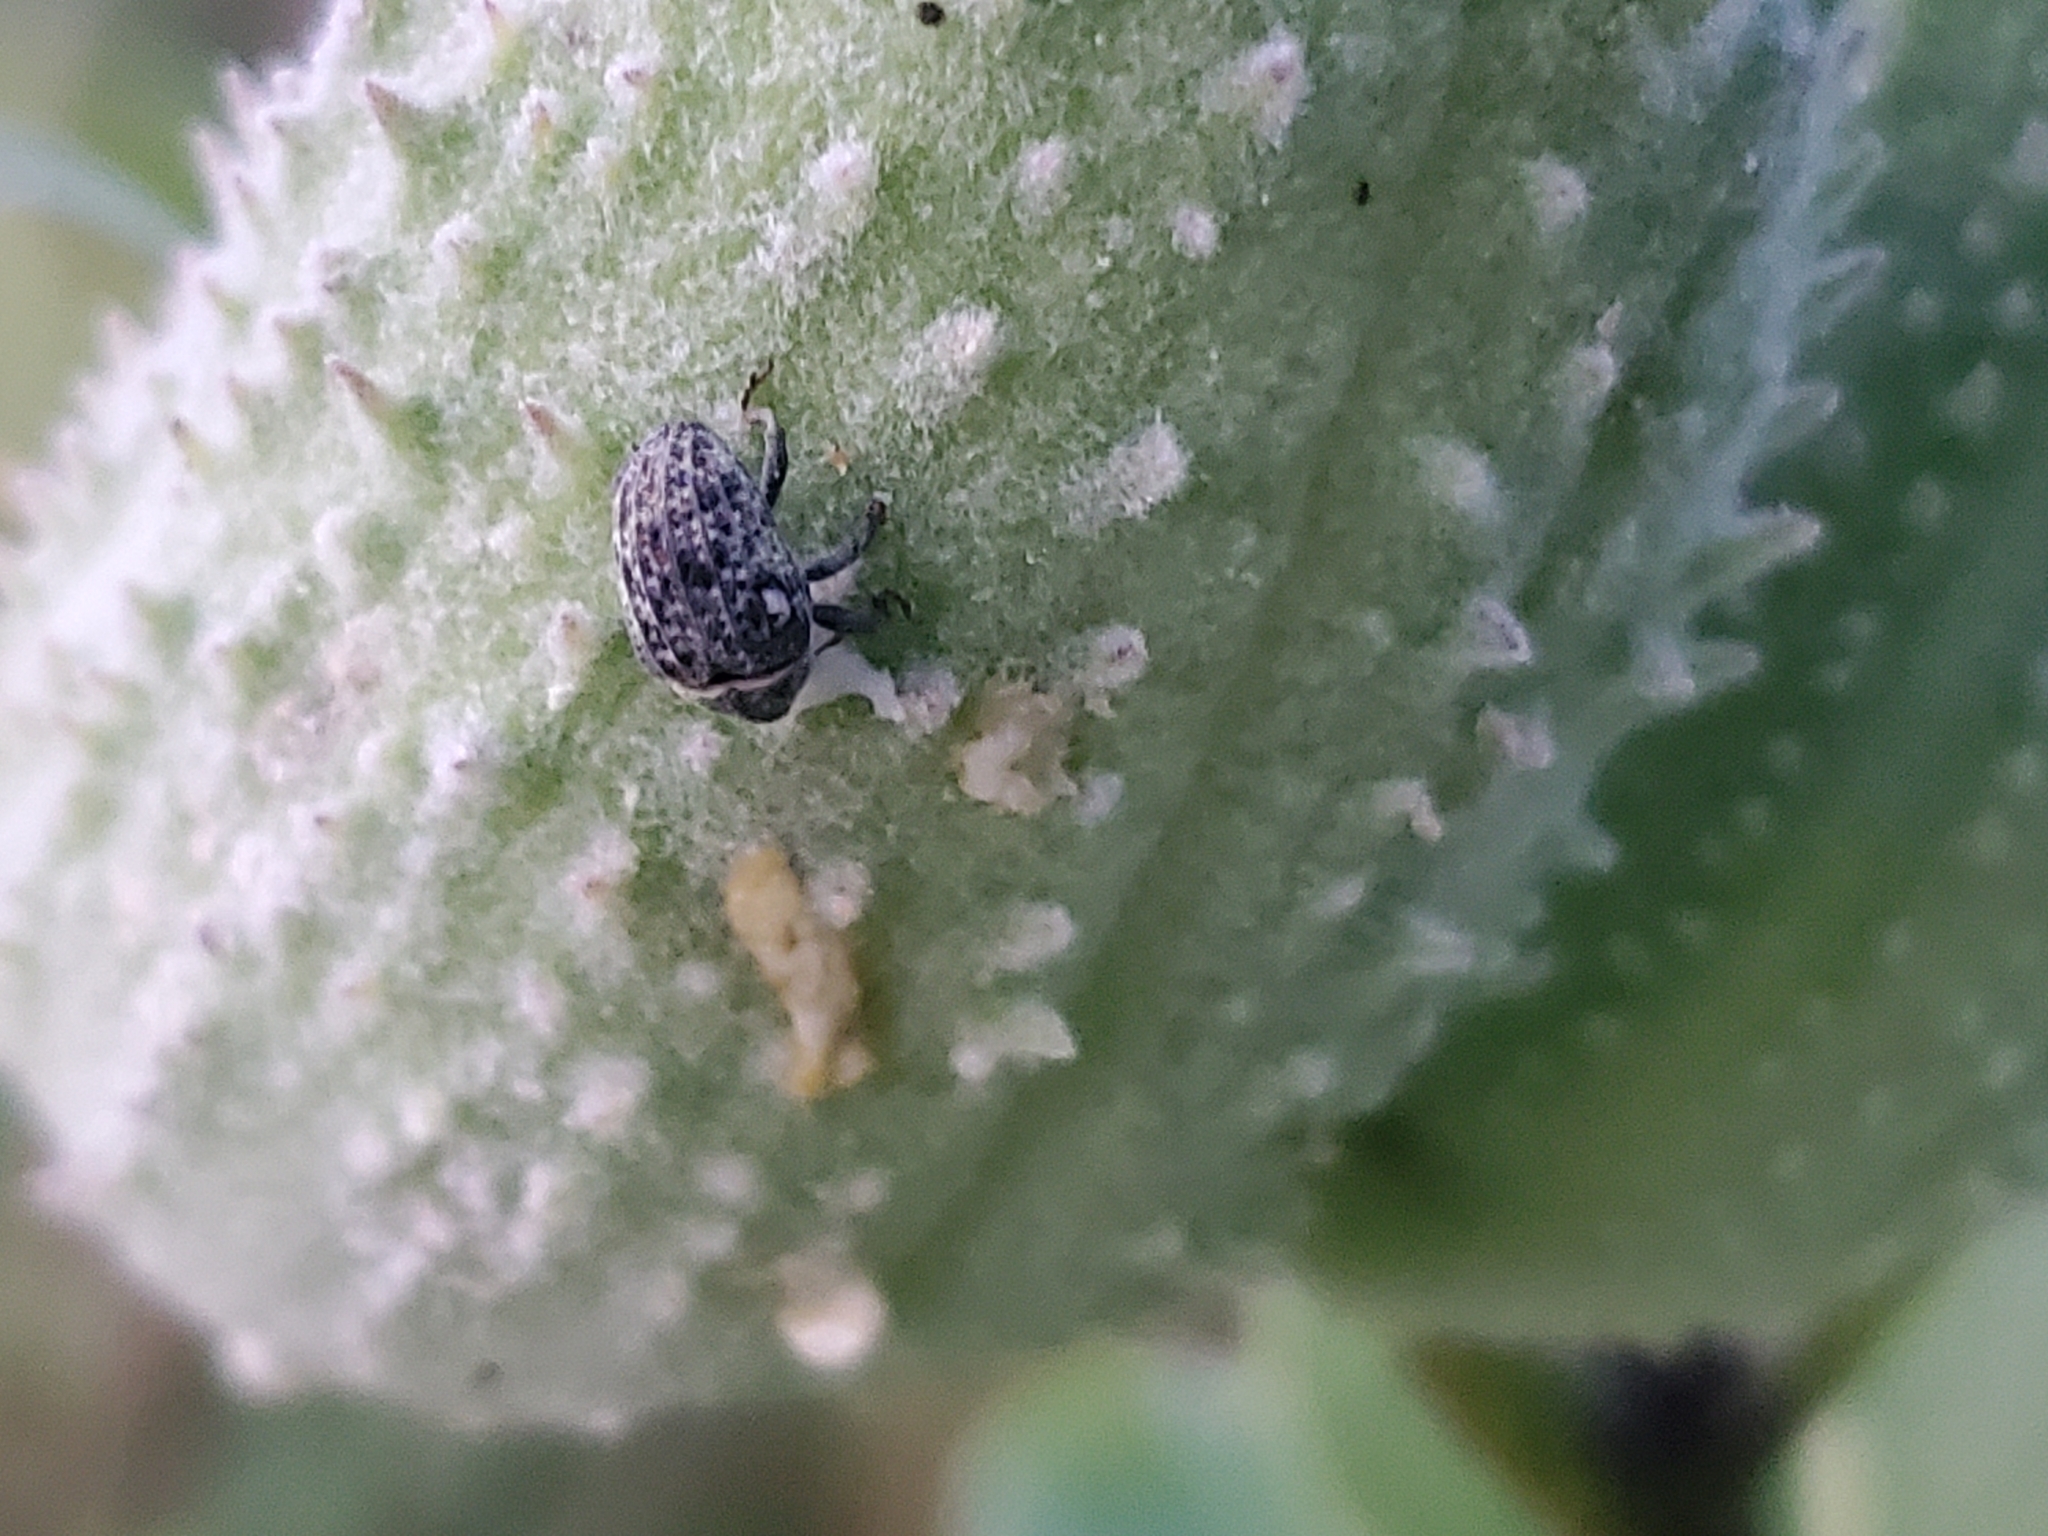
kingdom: Animalia
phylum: Arthropoda
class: Insecta
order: Coleoptera
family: Curculionidae
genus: Rhyssomatus
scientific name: Rhyssomatus lineaticollis
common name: Milkweed stem weevil
